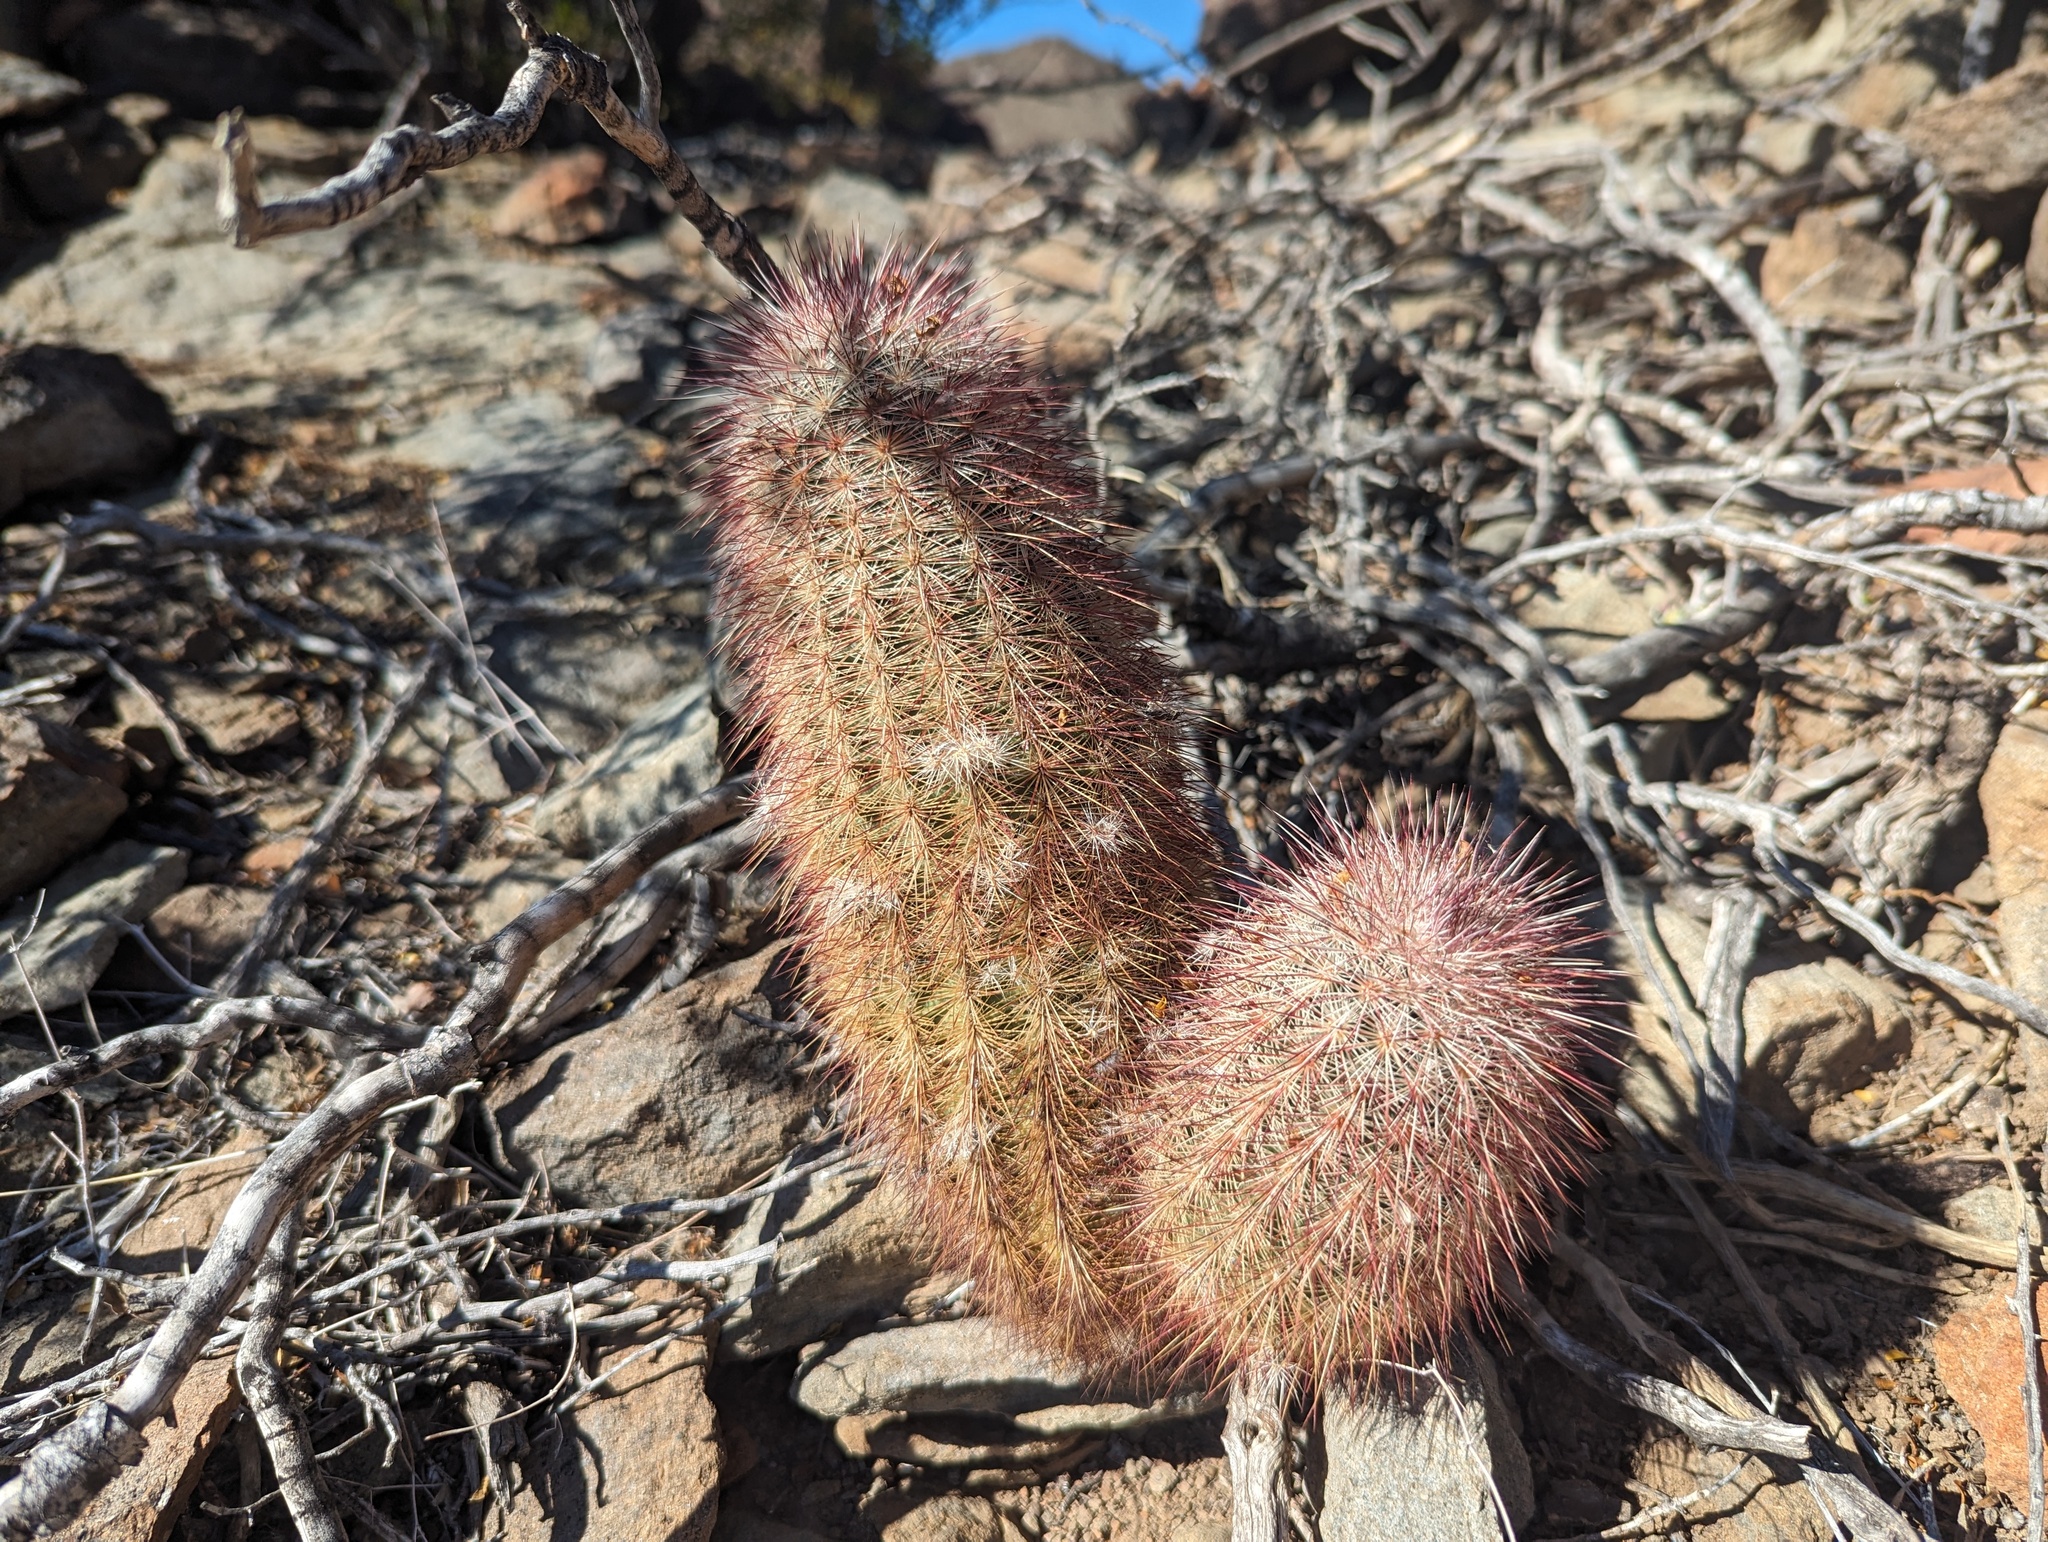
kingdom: Plantae
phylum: Tracheophyta
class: Magnoliopsida
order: Caryophyllales
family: Cactaceae
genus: Echinocereus
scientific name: Echinocereus russanthus
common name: Brownspine hedgehog cactus
